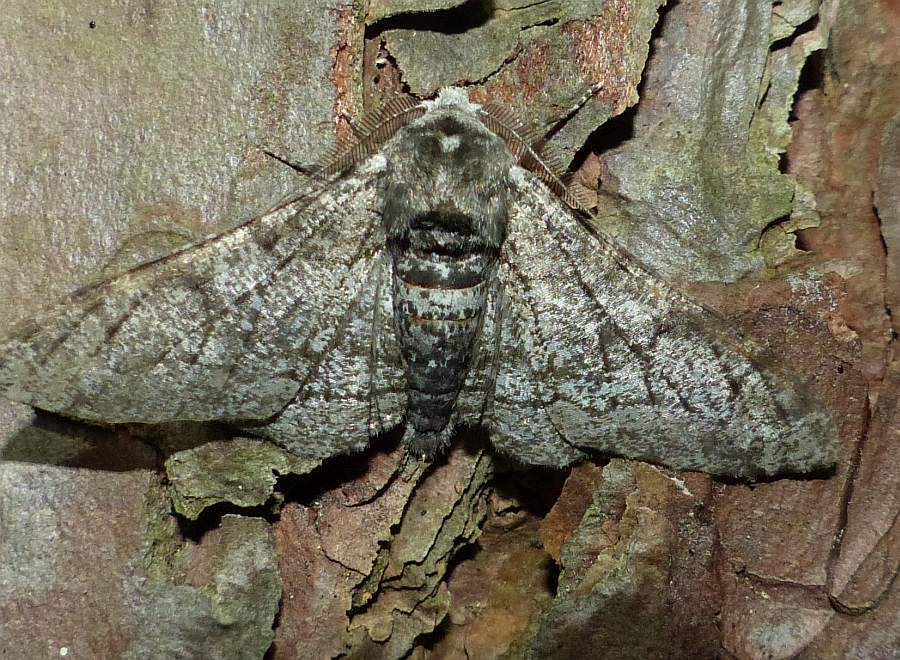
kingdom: Animalia
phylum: Arthropoda
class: Insecta
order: Lepidoptera
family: Geometridae
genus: Biston
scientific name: Biston betularia
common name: Peppered moth
